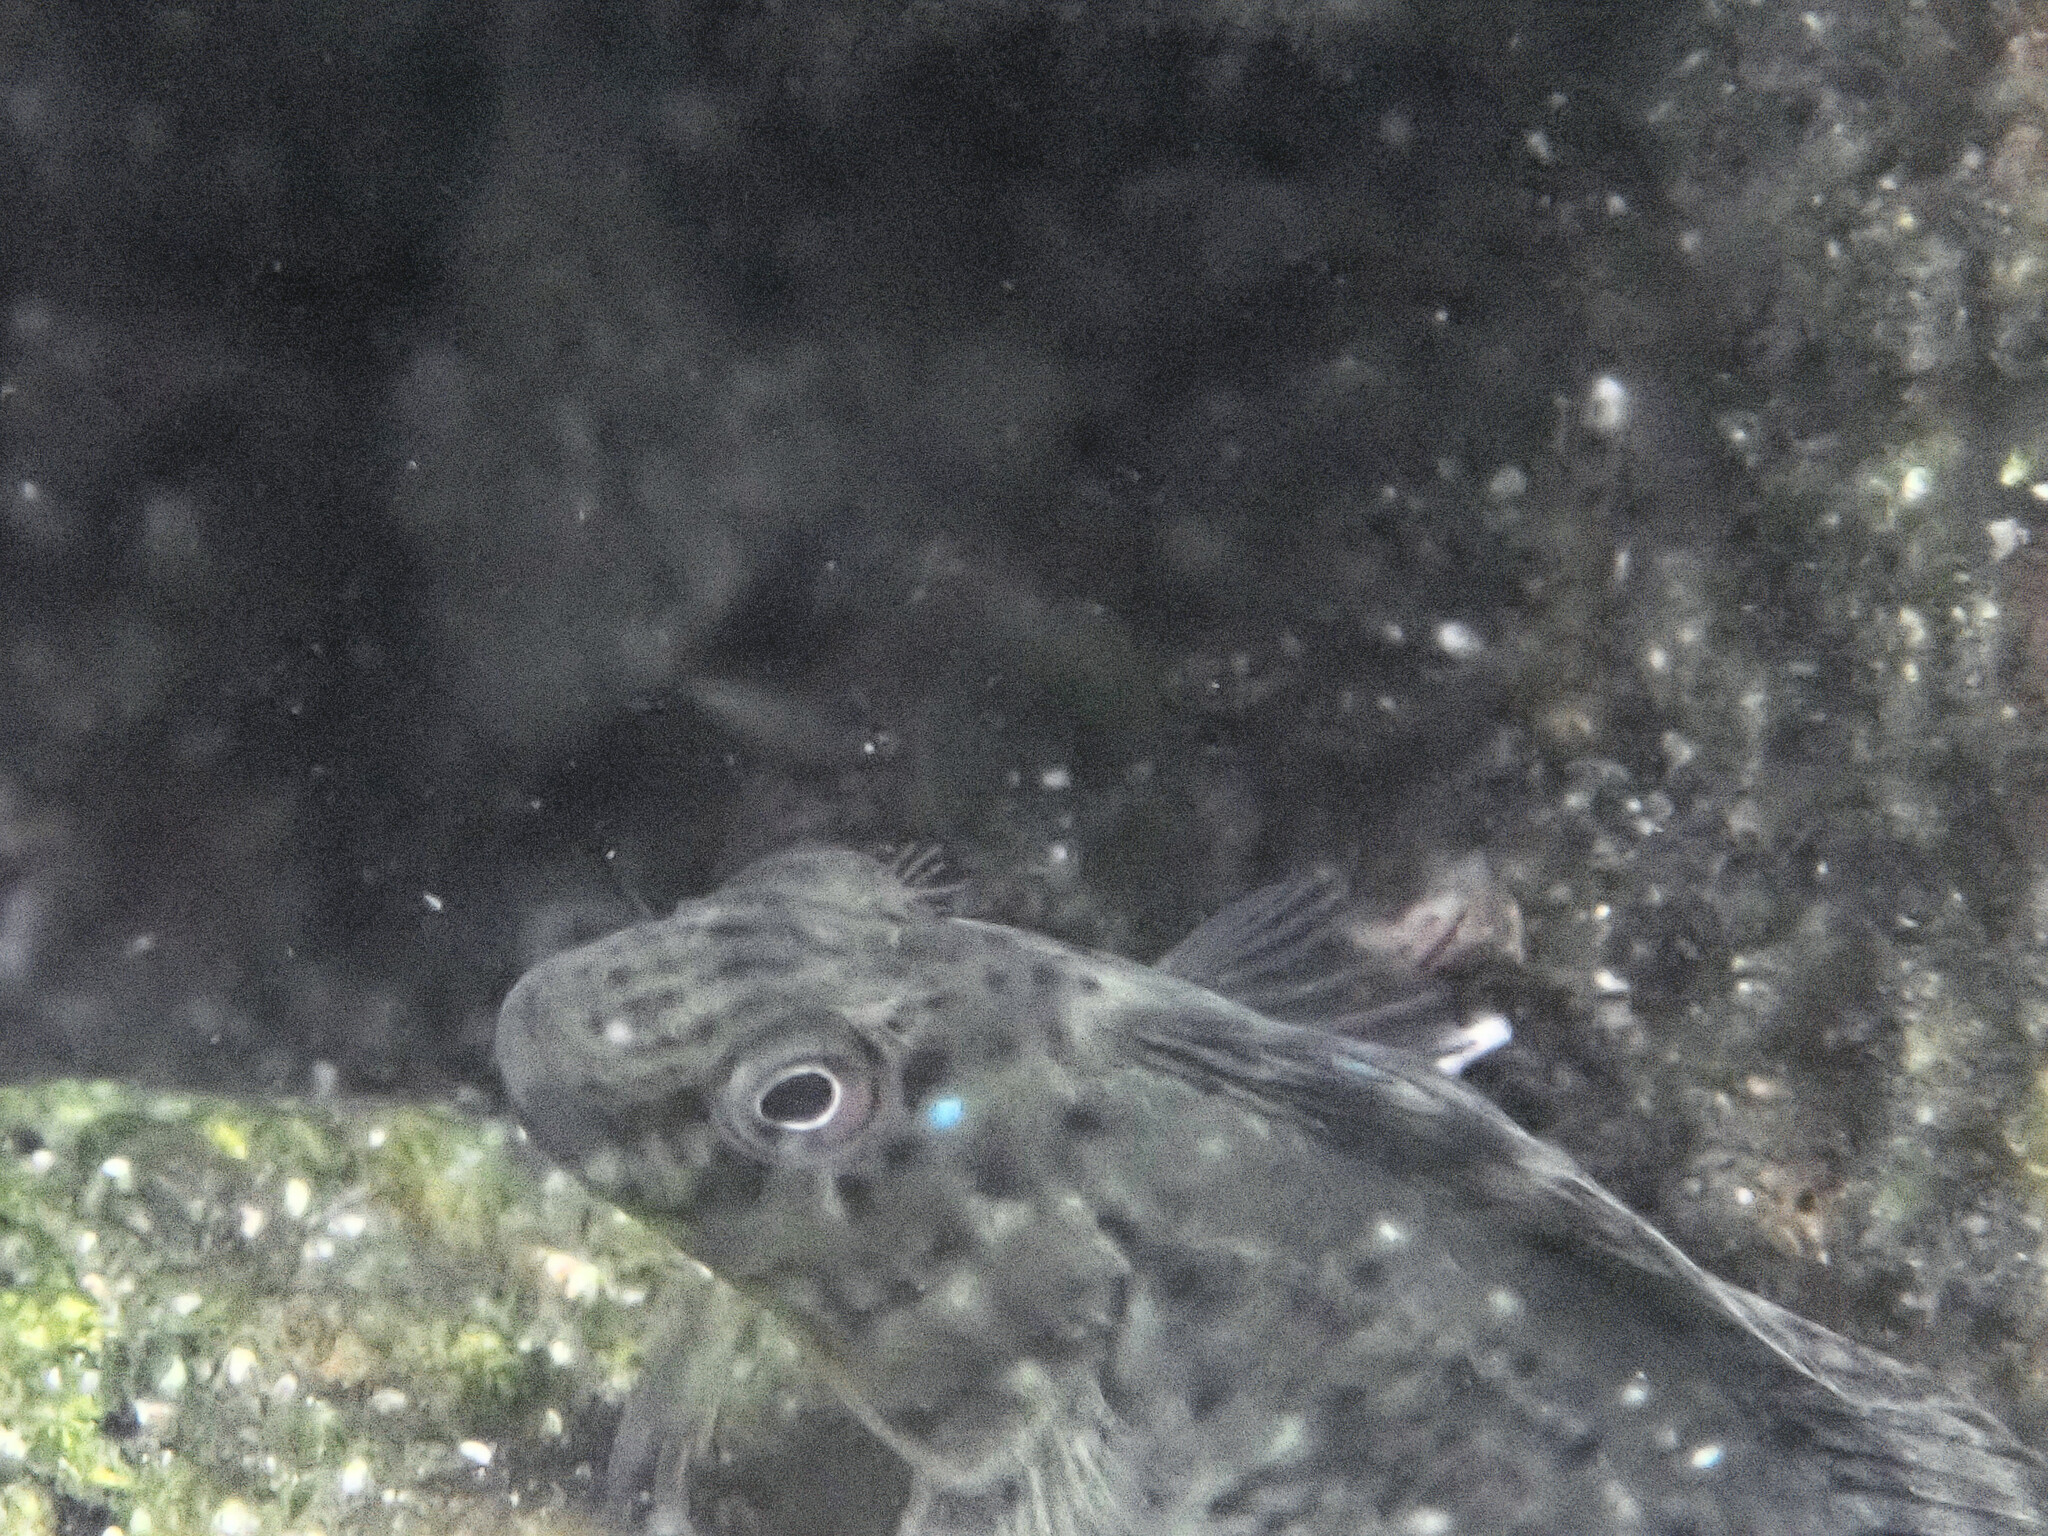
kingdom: Animalia
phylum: Chordata
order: Perciformes
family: Blenniidae
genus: Parablennius
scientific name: Parablennius sanguinolentus
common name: Black sea blenny
